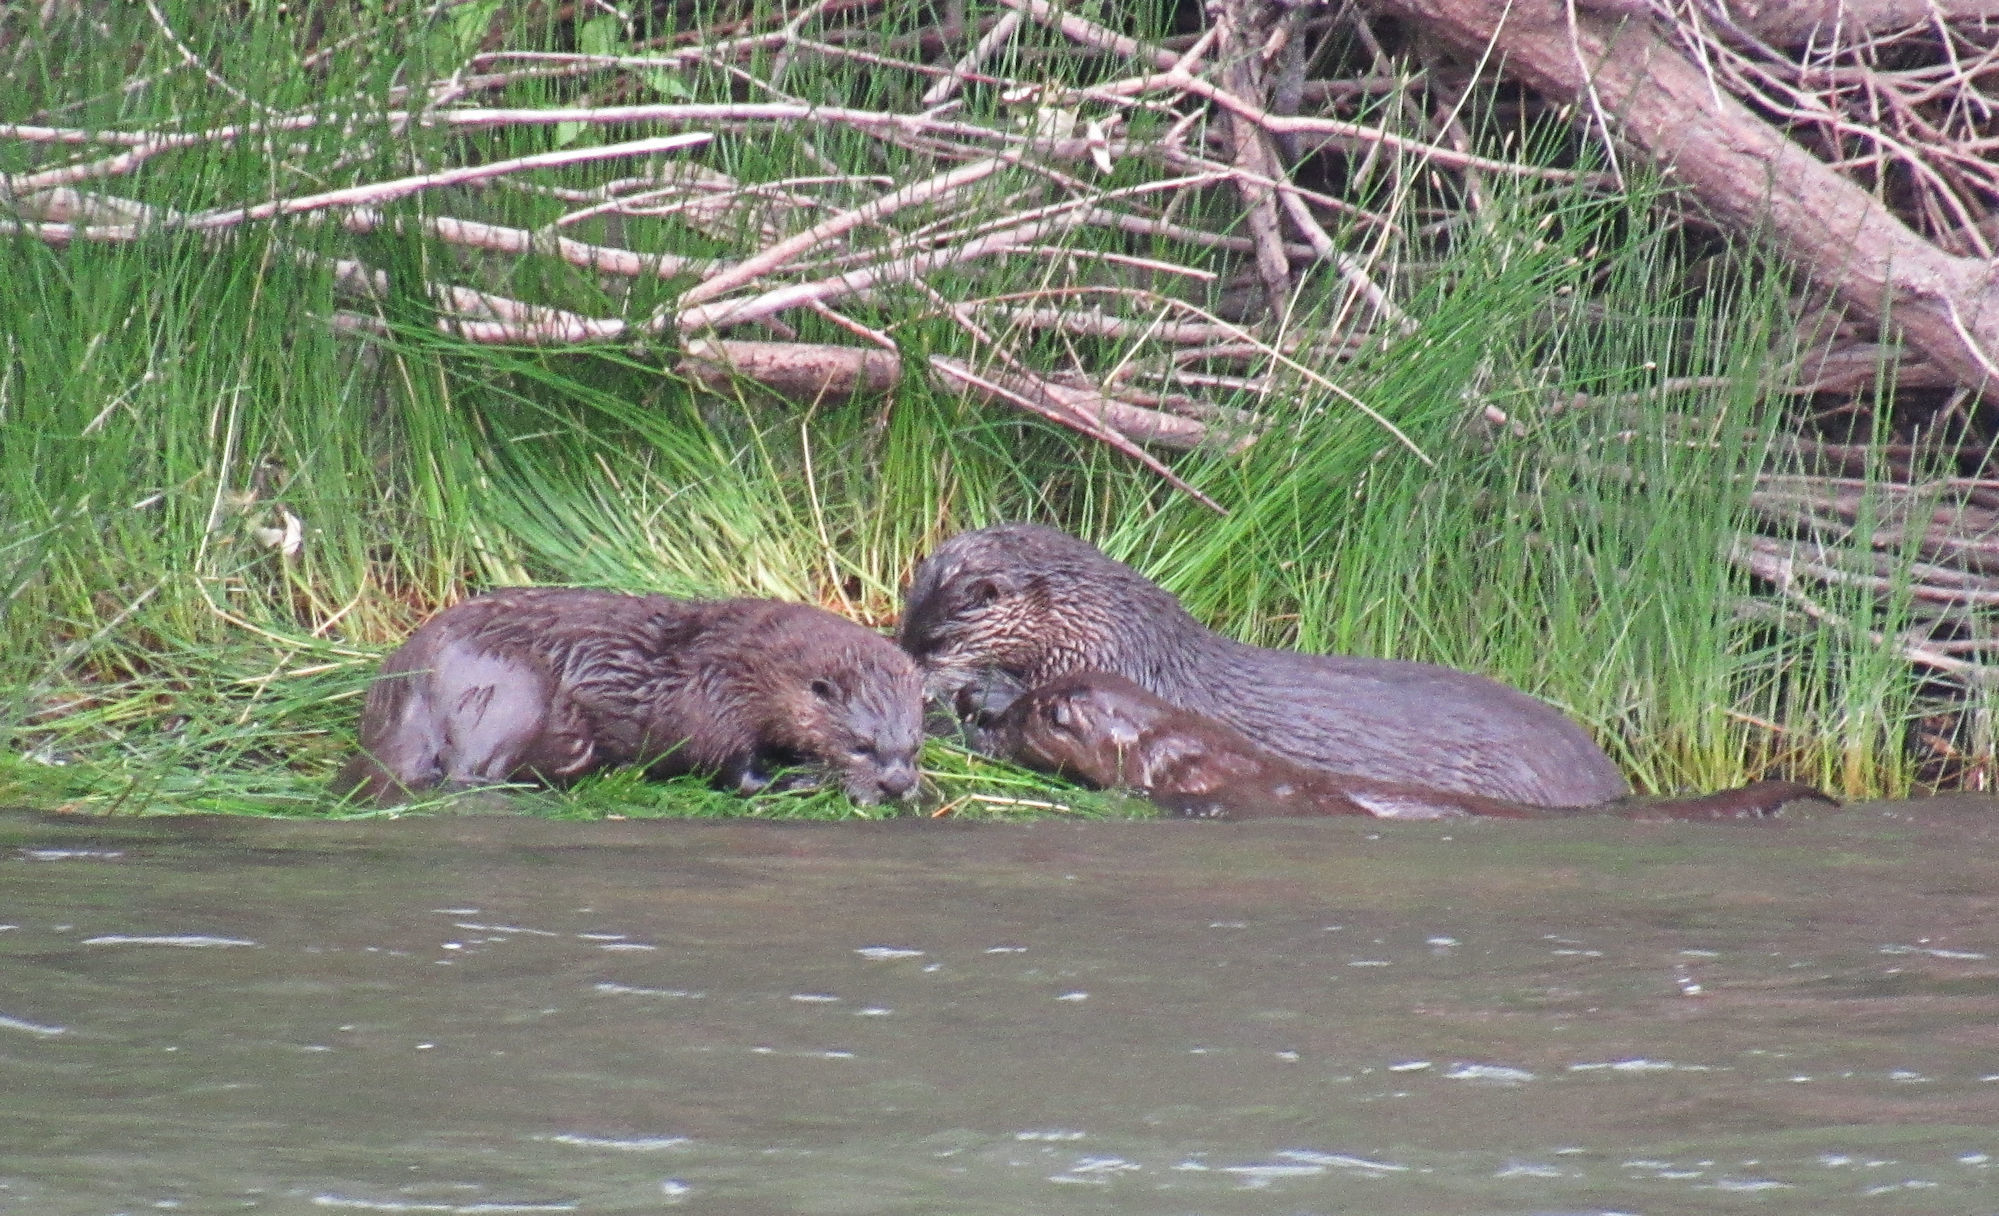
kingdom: Animalia
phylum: Chordata
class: Mammalia
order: Carnivora
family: Mustelidae
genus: Lontra
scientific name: Lontra canadensis
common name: North american river otter
